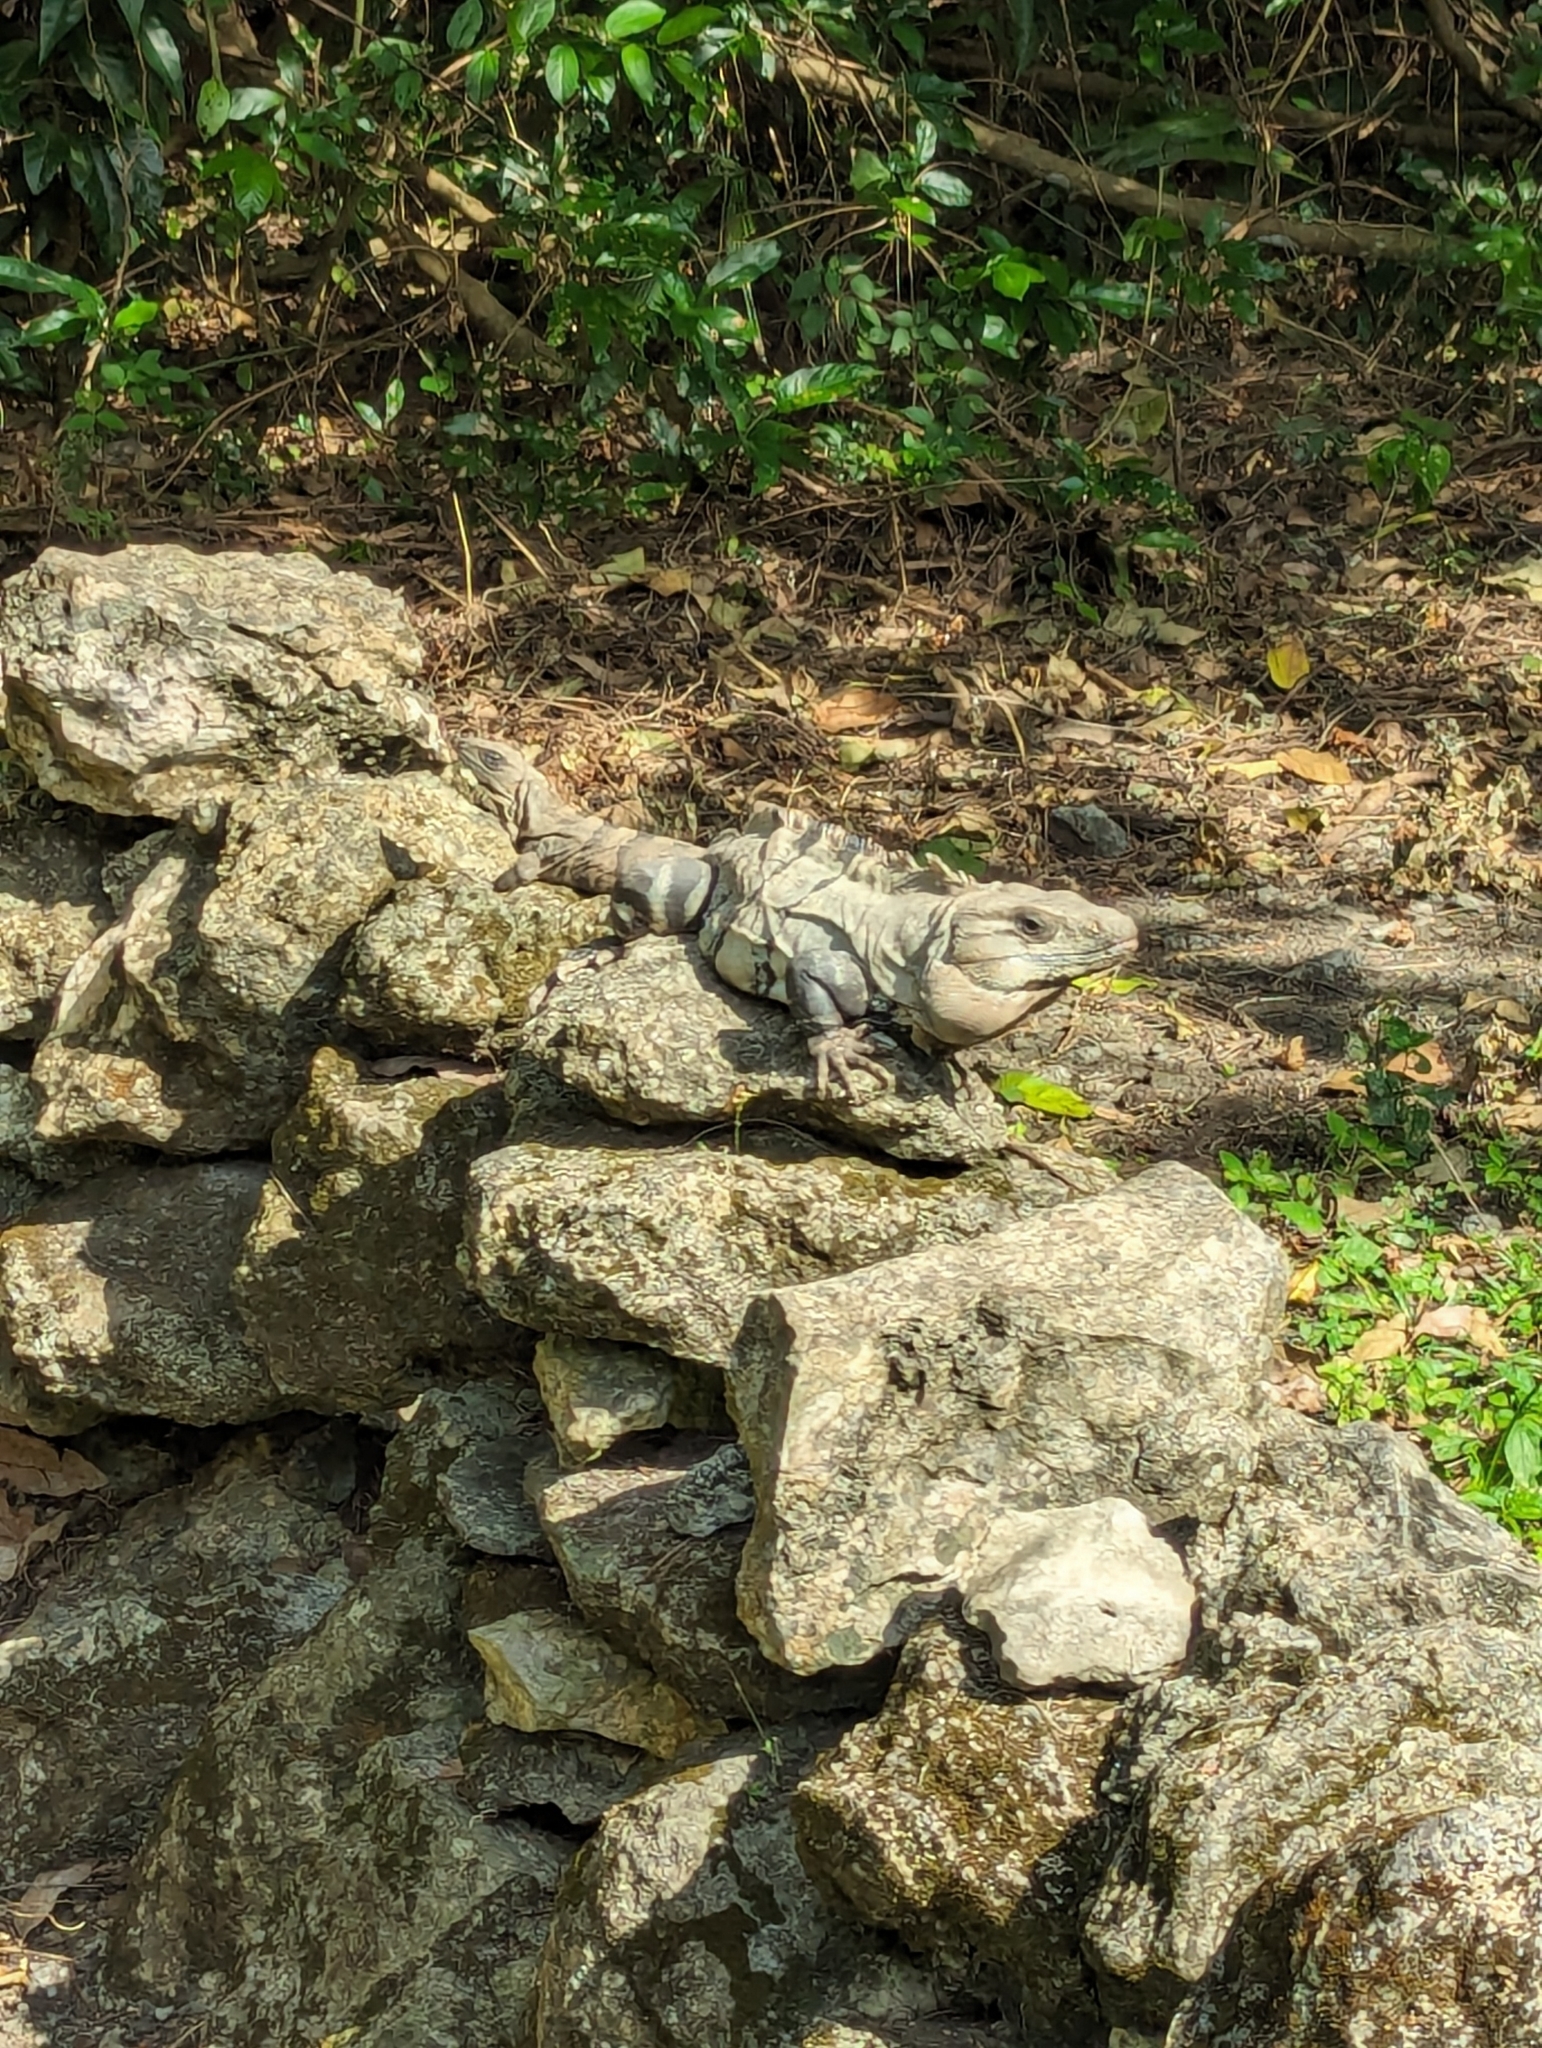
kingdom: Animalia
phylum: Chordata
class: Squamata
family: Iguanidae
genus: Ctenosaura
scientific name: Ctenosaura similis
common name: Black spiny-tailed iguana
